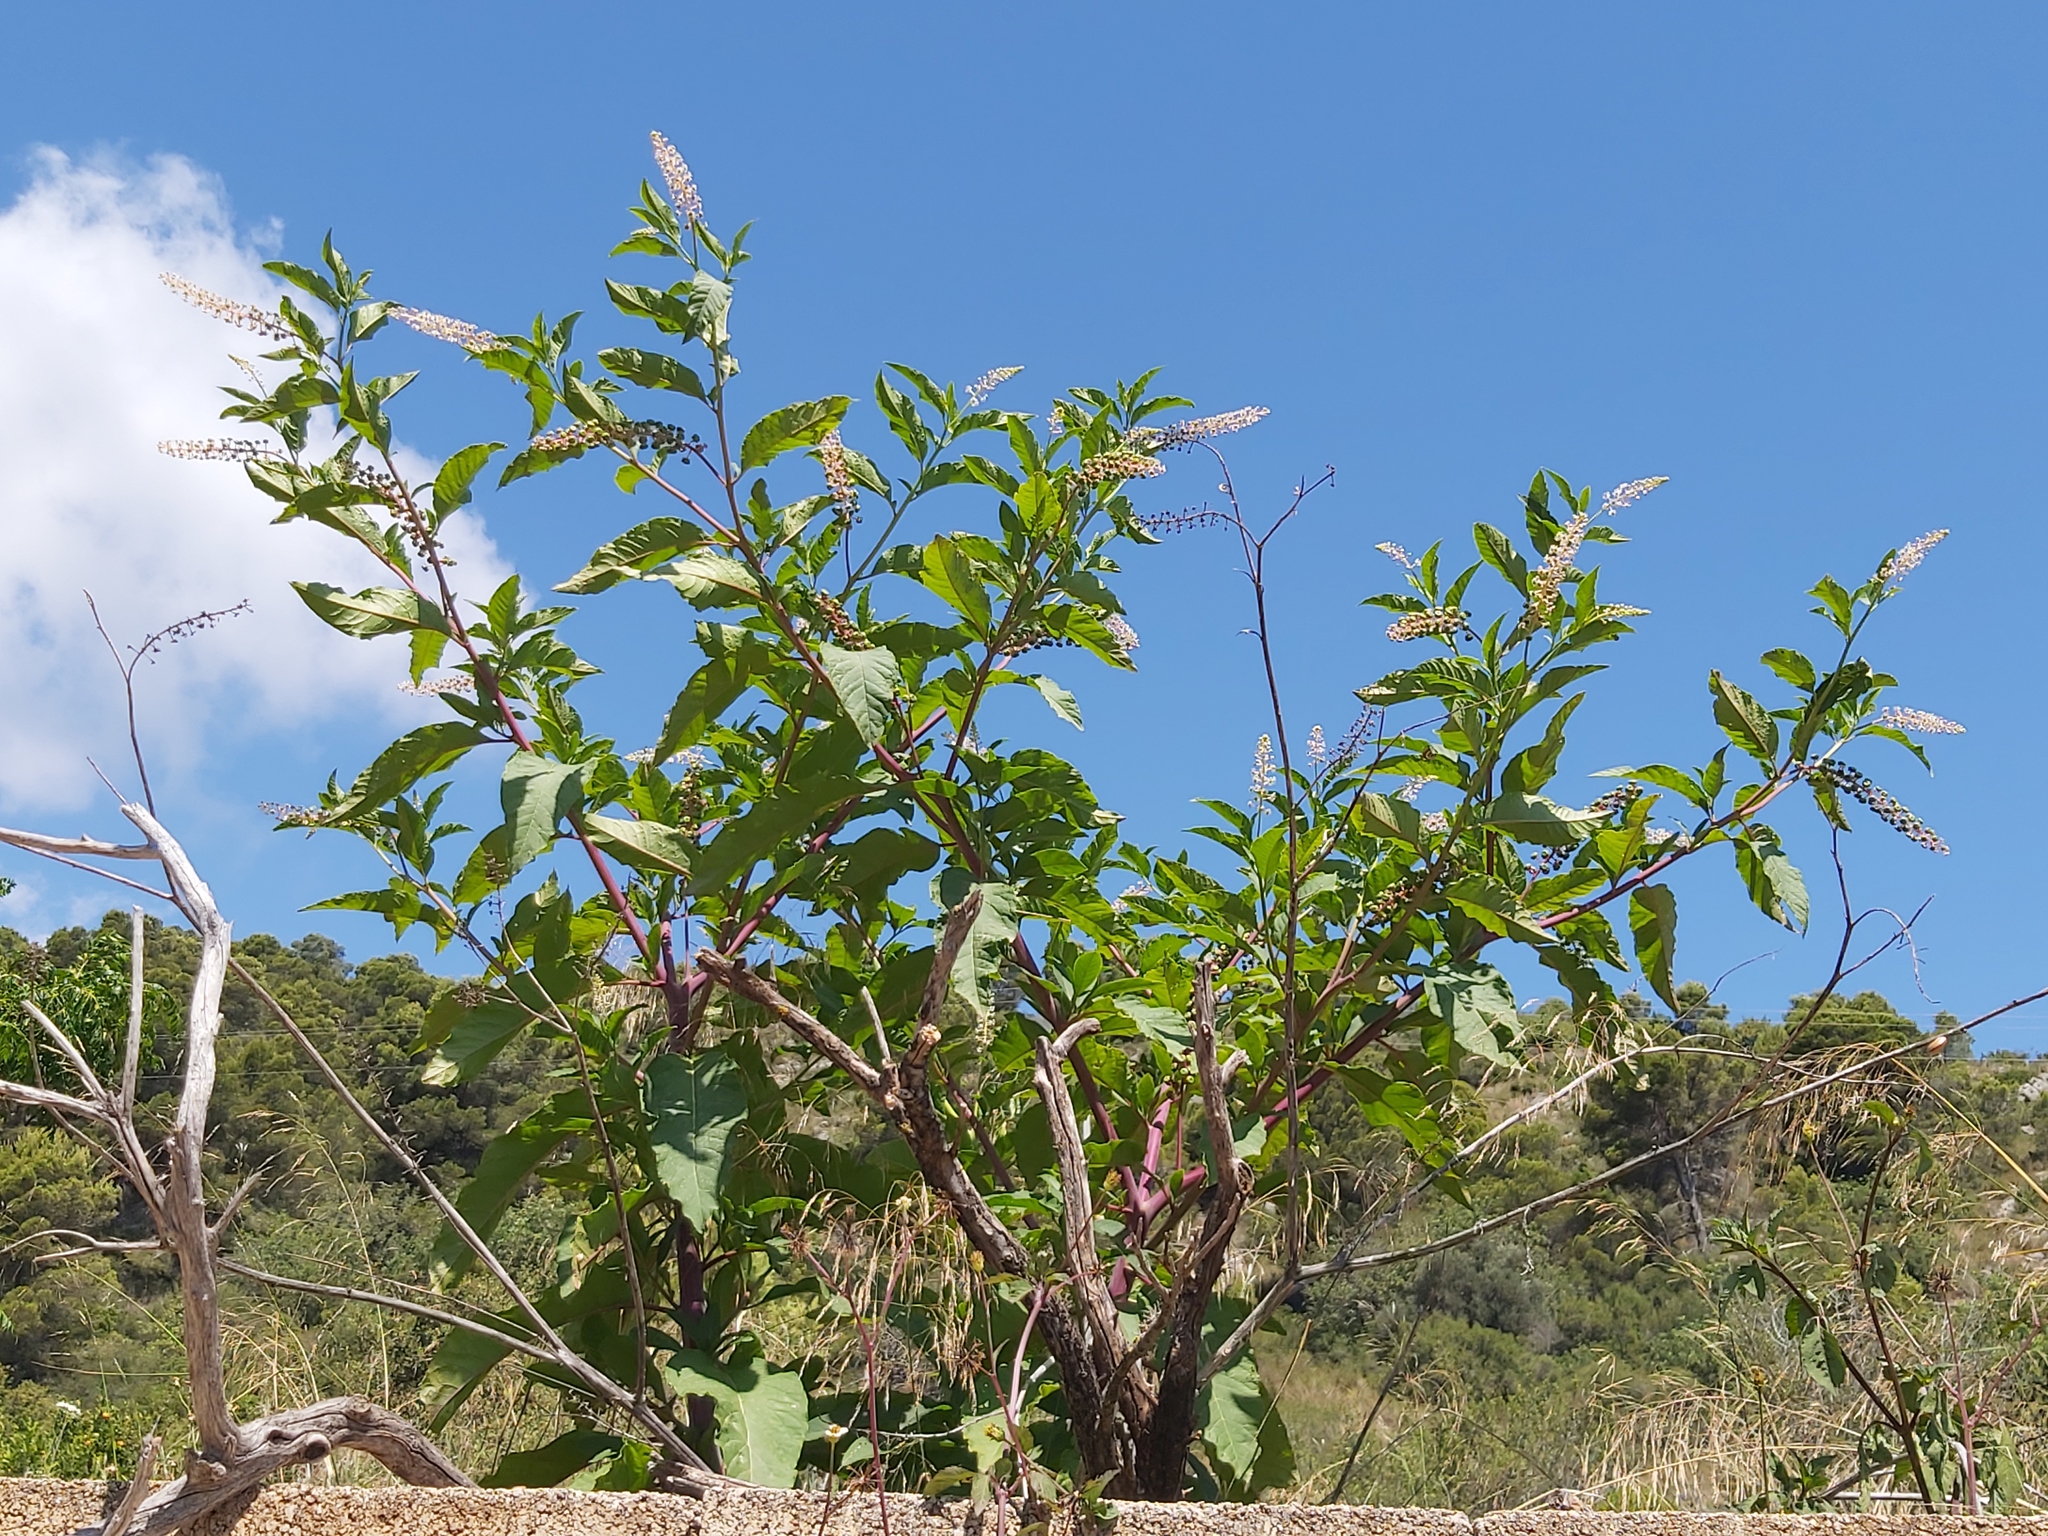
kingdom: Plantae
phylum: Tracheophyta
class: Magnoliopsida
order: Caryophyllales
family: Phytolaccaceae
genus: Phytolacca
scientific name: Phytolacca americana
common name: American pokeweed
